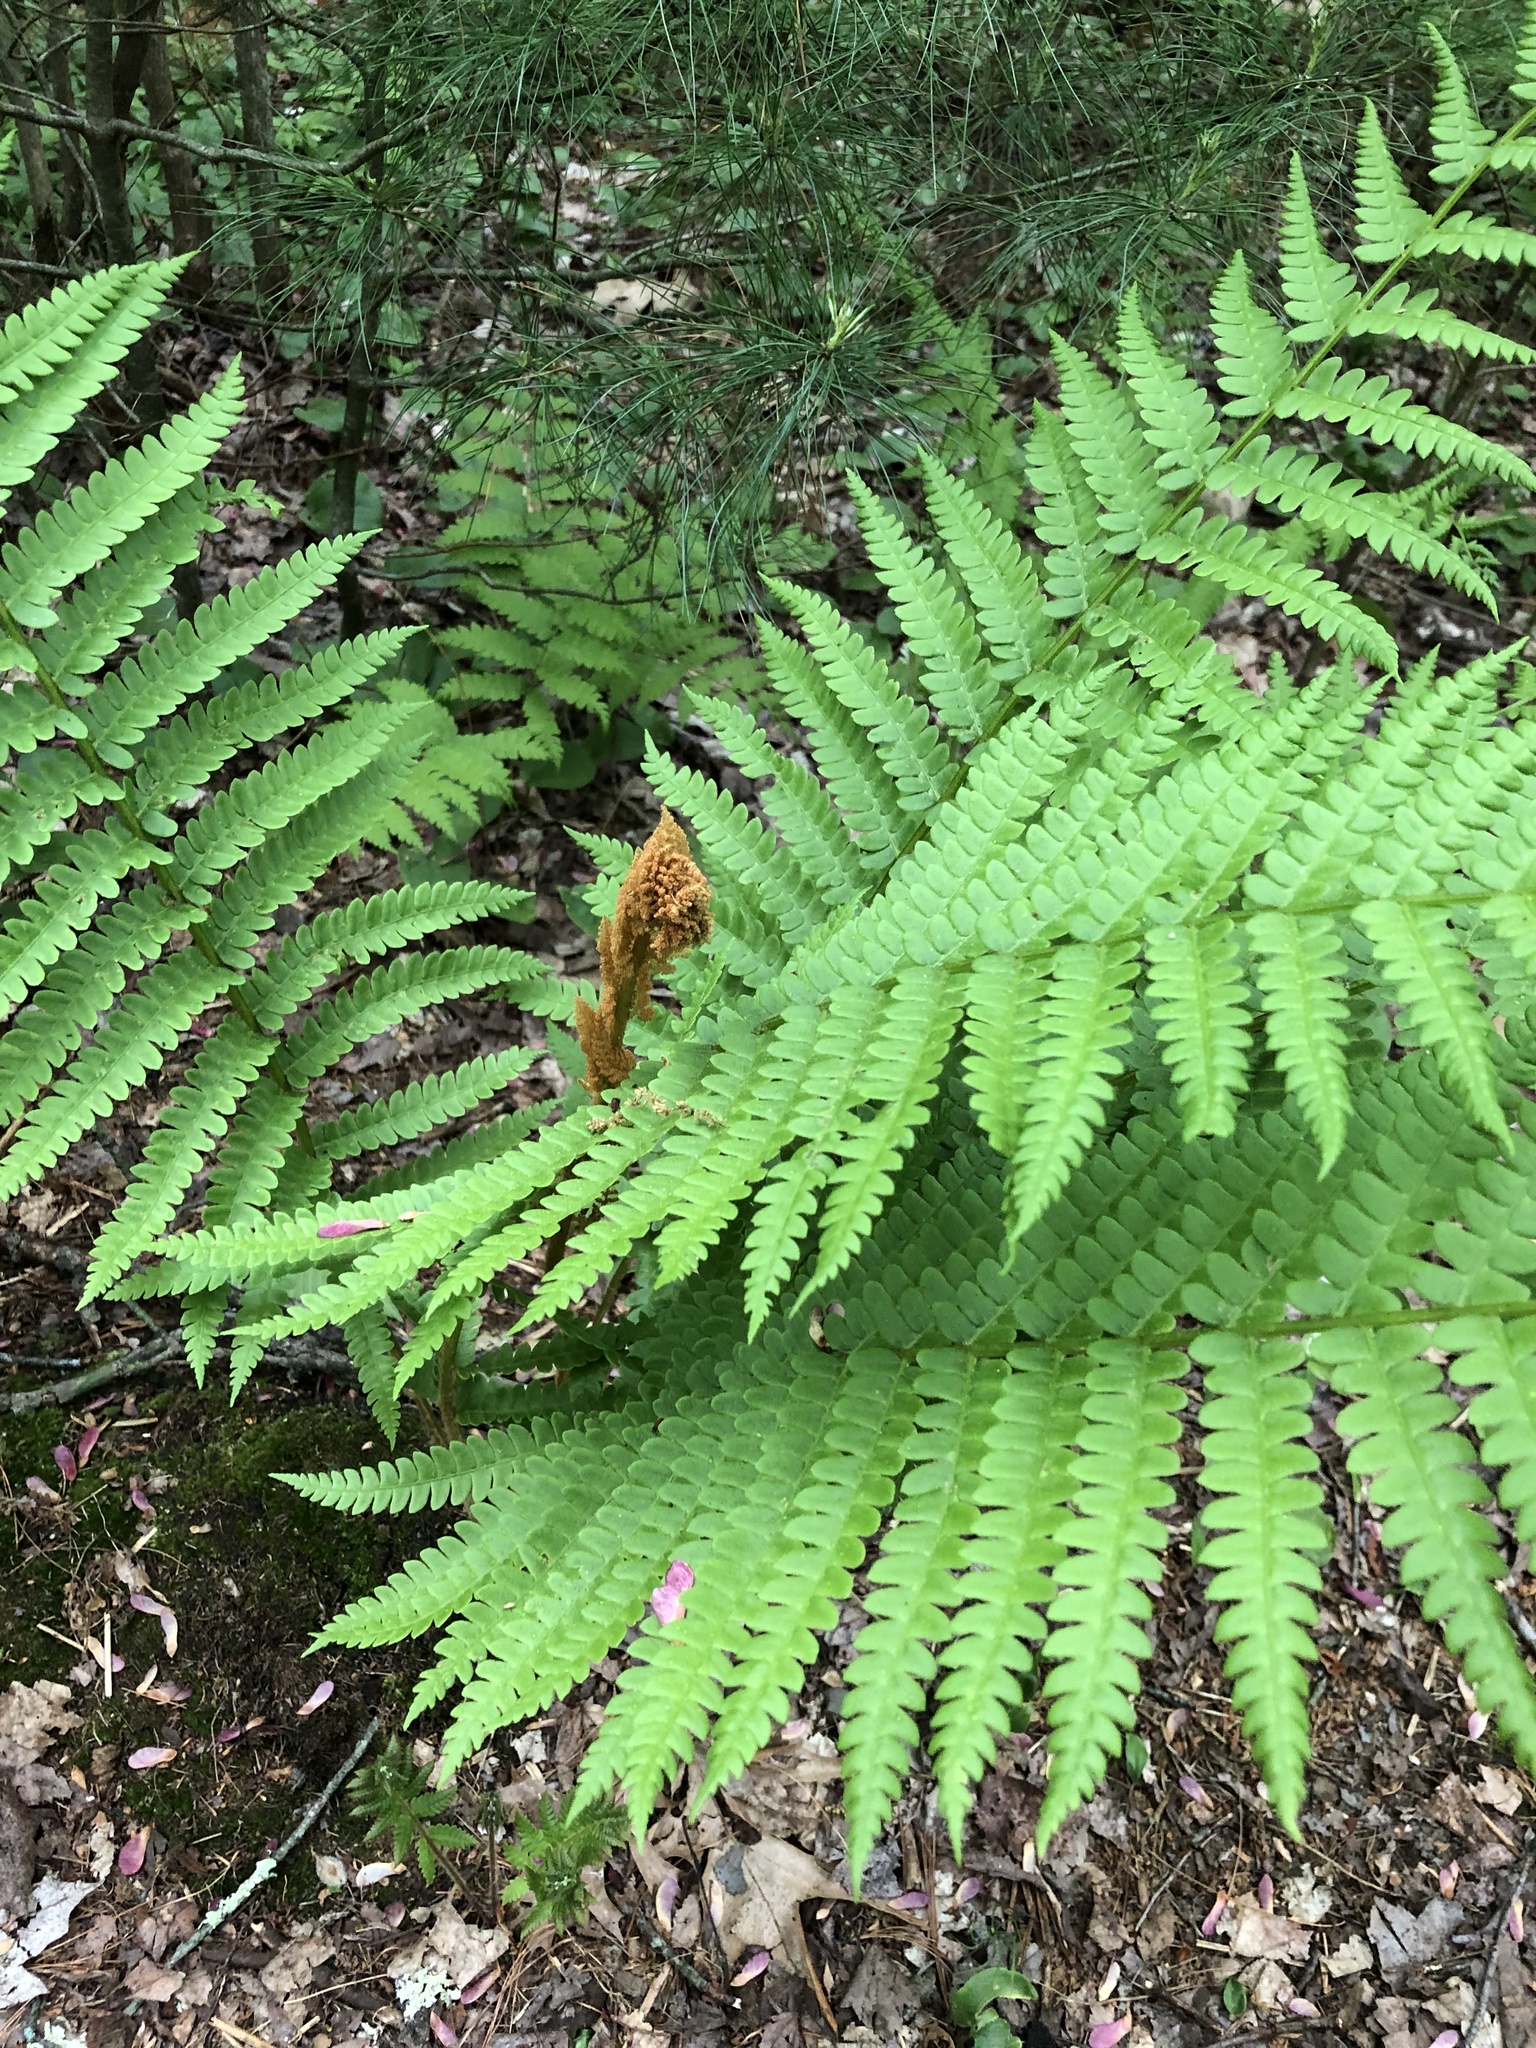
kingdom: Plantae
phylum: Tracheophyta
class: Polypodiopsida
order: Osmundales
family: Osmundaceae
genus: Osmundastrum
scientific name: Osmundastrum cinnamomeum
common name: Cinnamon fern
